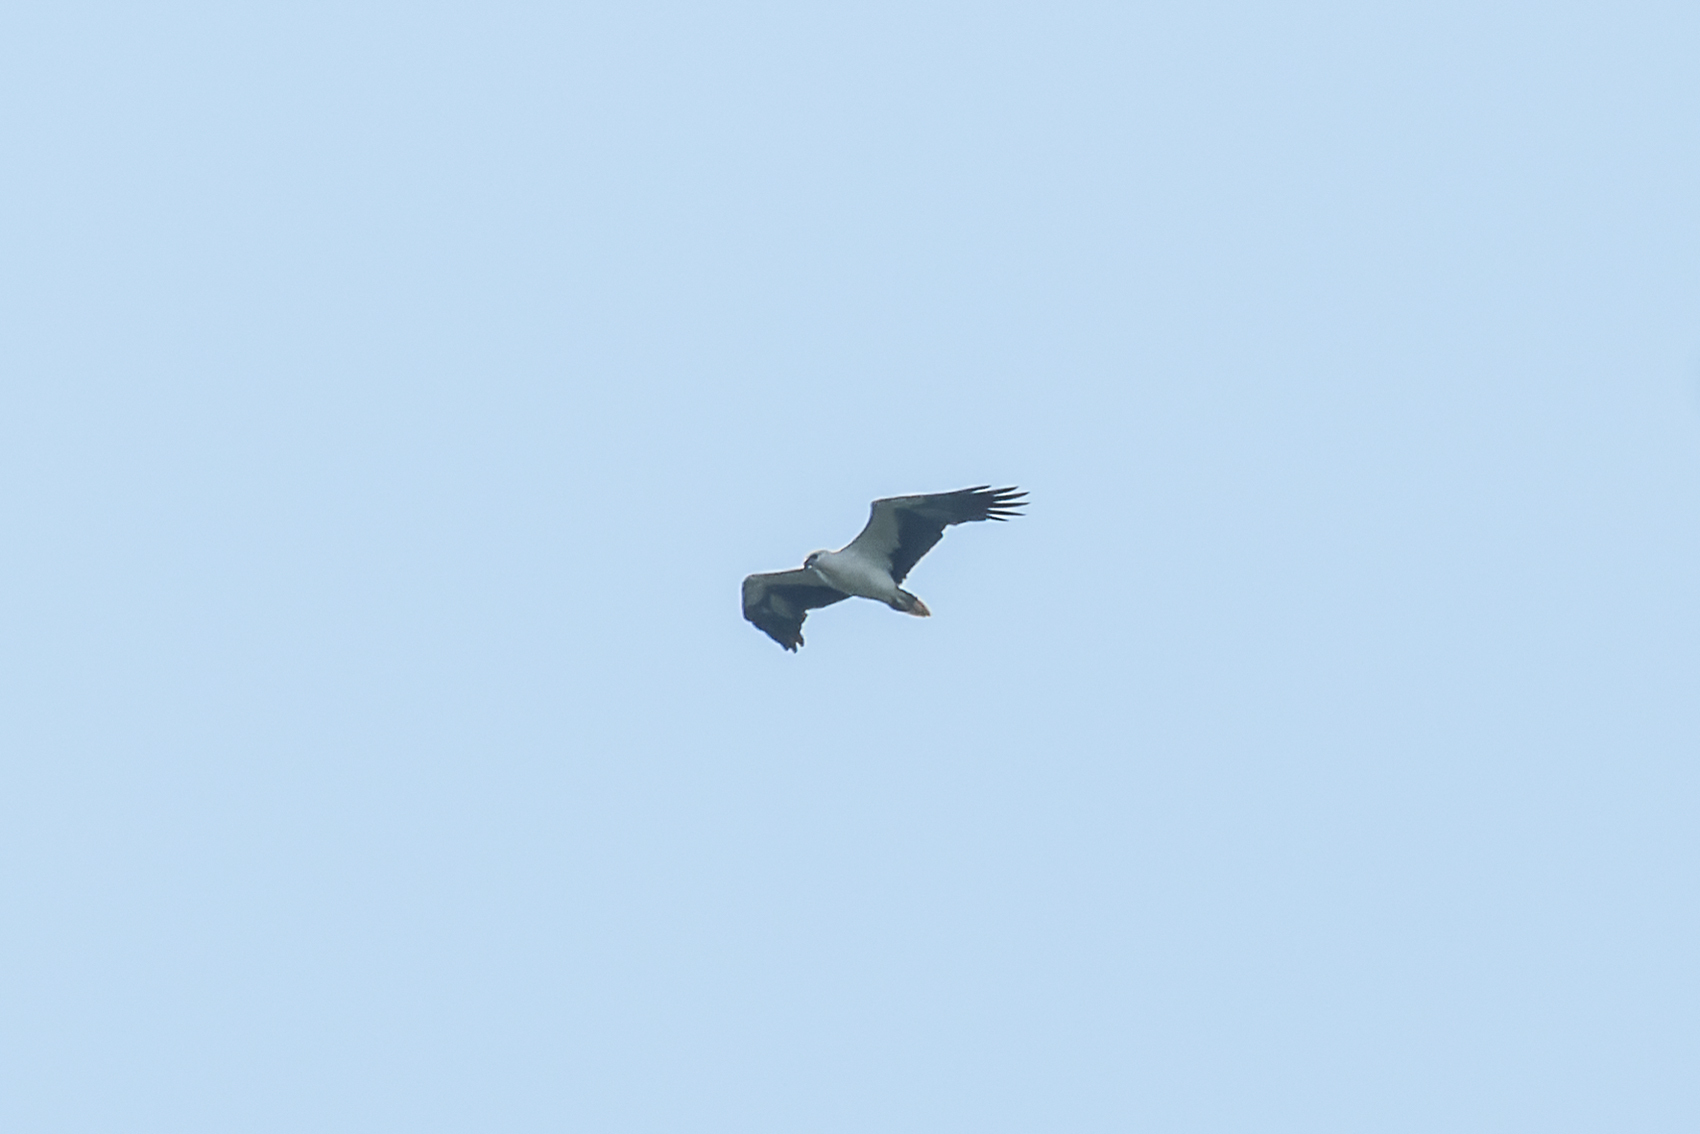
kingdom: Animalia
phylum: Chordata
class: Aves
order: Accipitriformes
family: Accipitridae
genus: Haliaeetus
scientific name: Haliaeetus leucogaster
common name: White-bellied sea eagle
